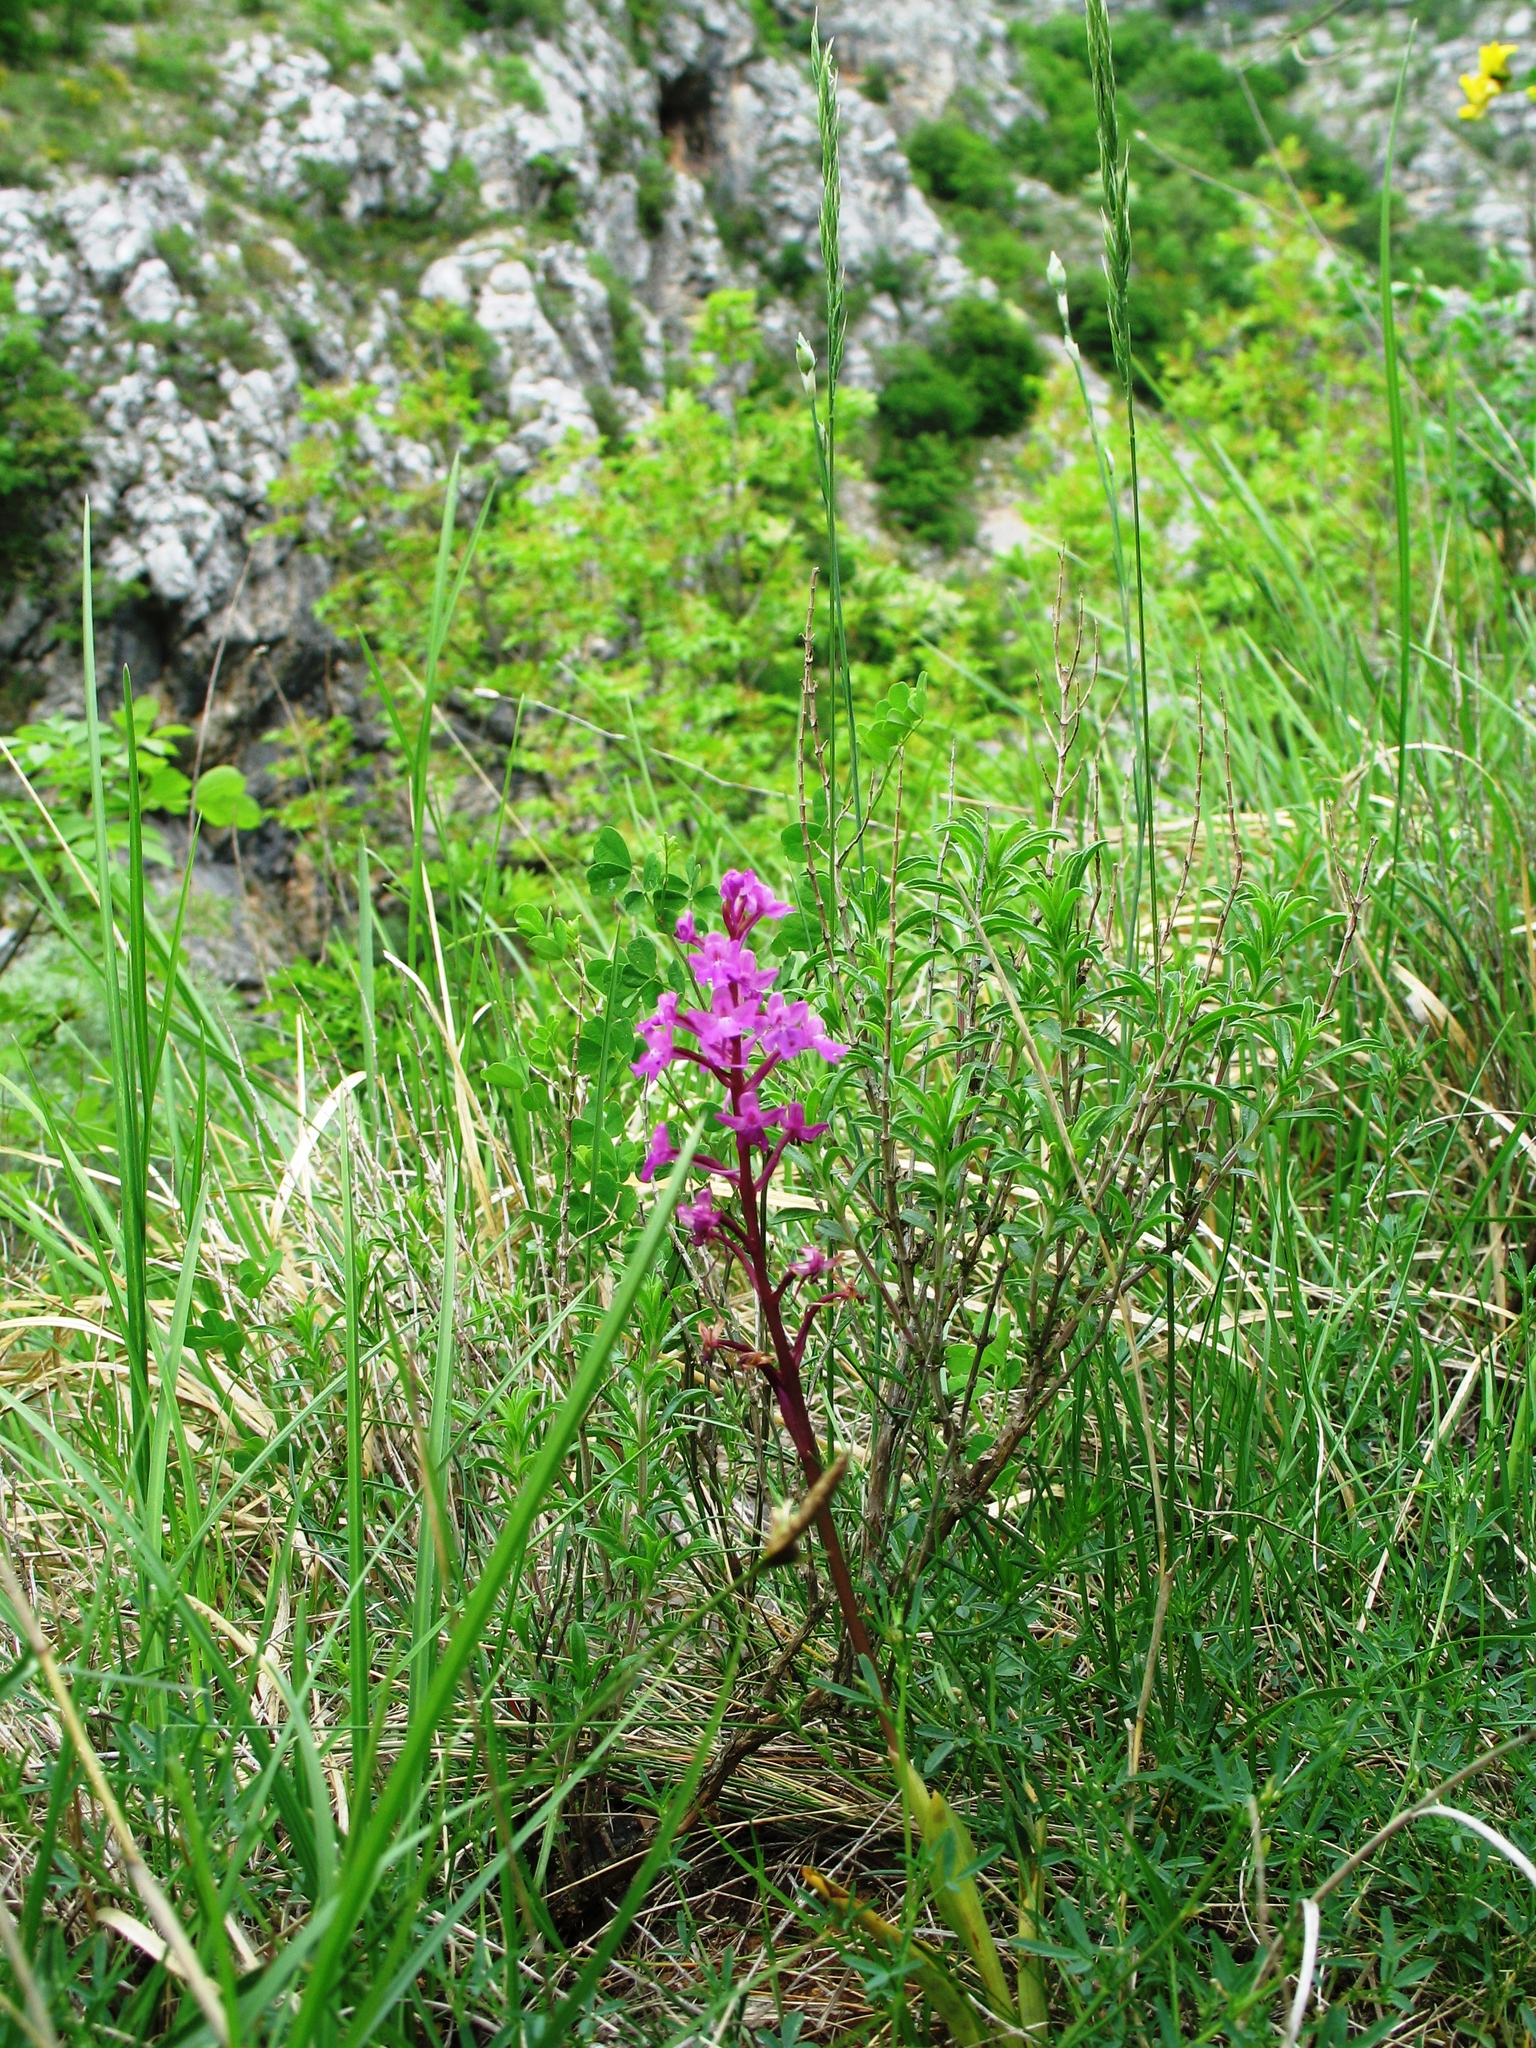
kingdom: Plantae
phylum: Tracheophyta
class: Liliopsida
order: Asparagales
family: Orchidaceae
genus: Orchis
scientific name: Orchis quadripunctata
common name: Four-spotted orchid
